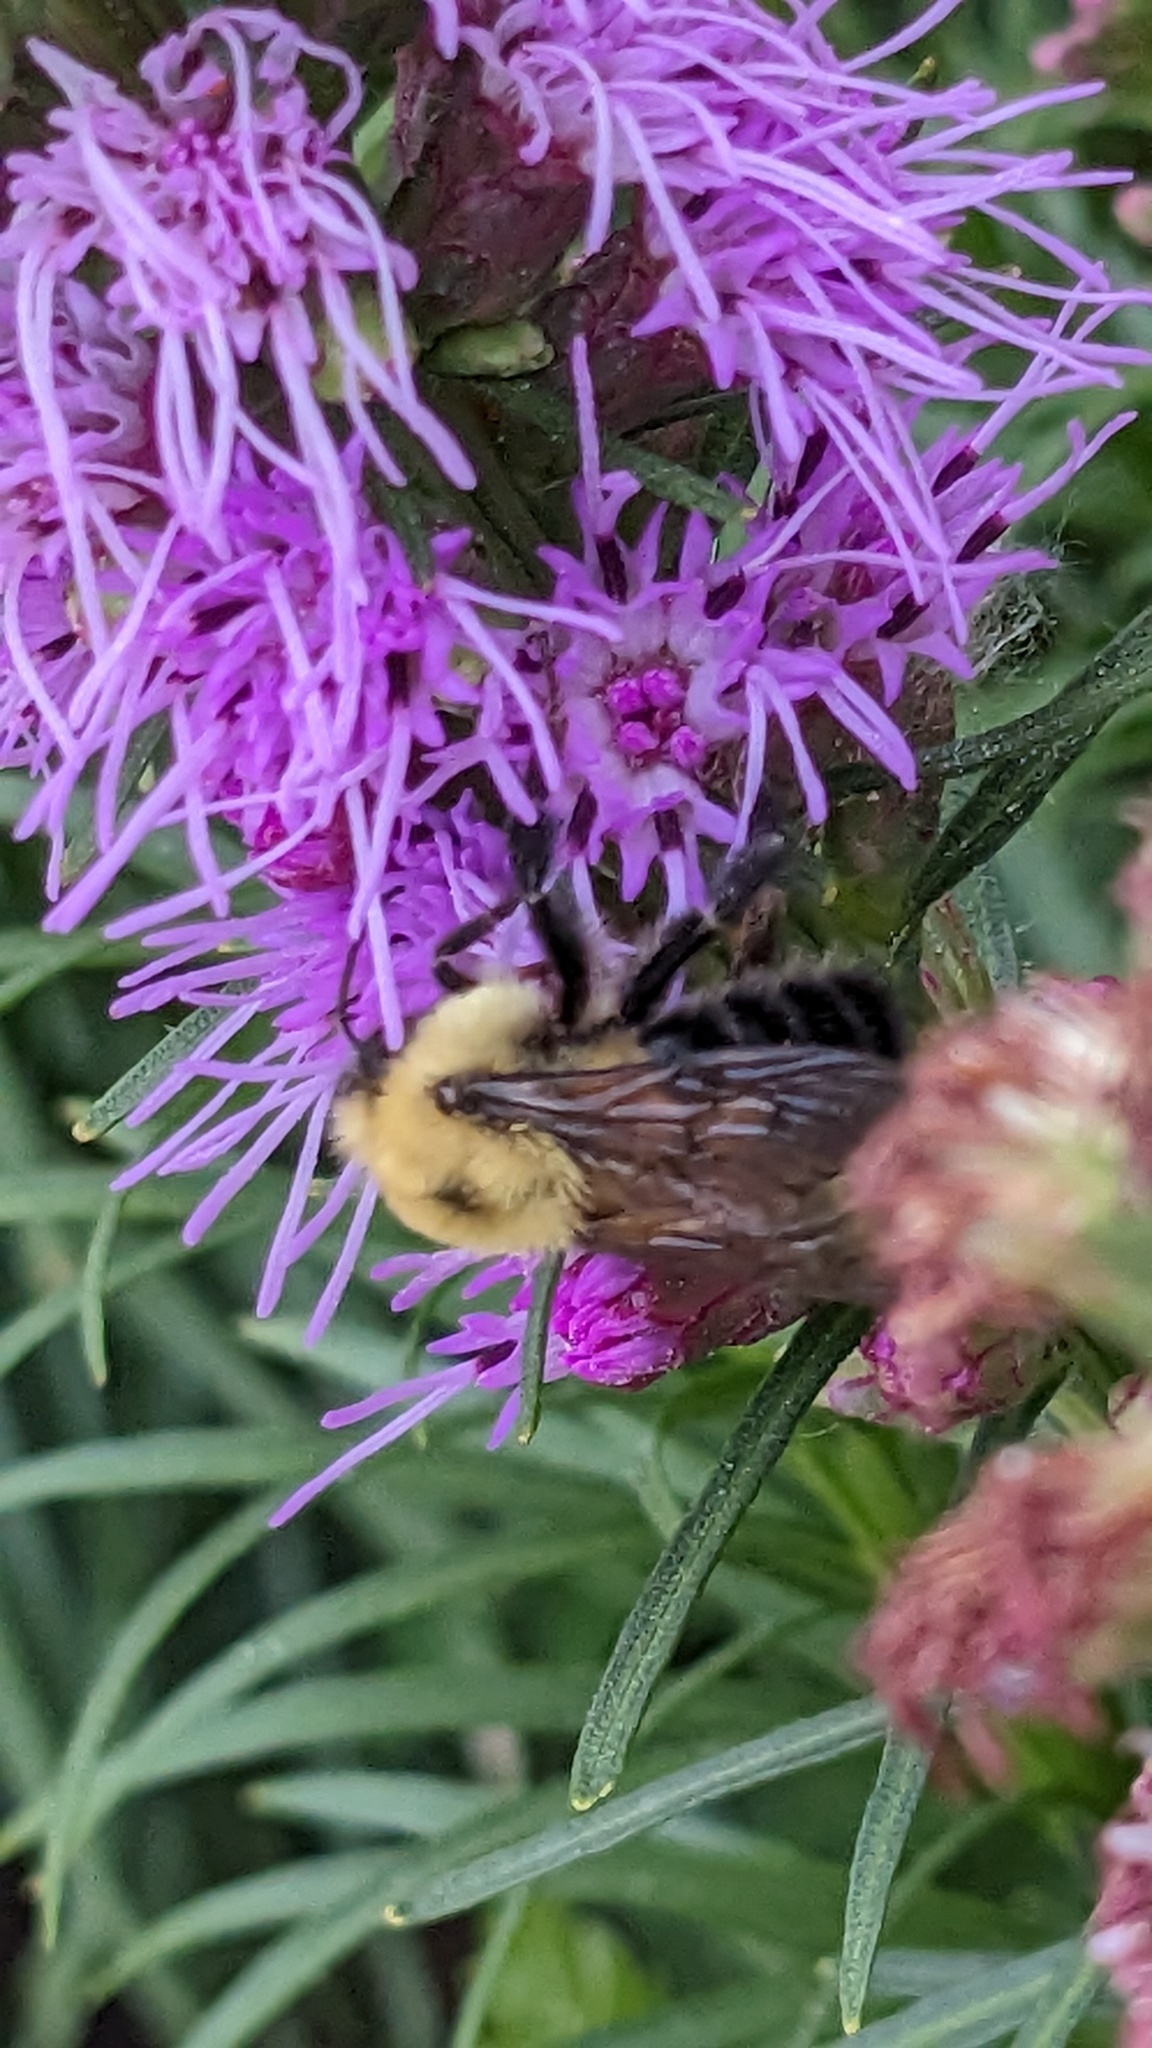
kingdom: Animalia
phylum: Arthropoda
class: Insecta
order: Hymenoptera
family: Apidae
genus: Bombus
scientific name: Bombus bimaculatus
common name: Two-spotted bumble bee
